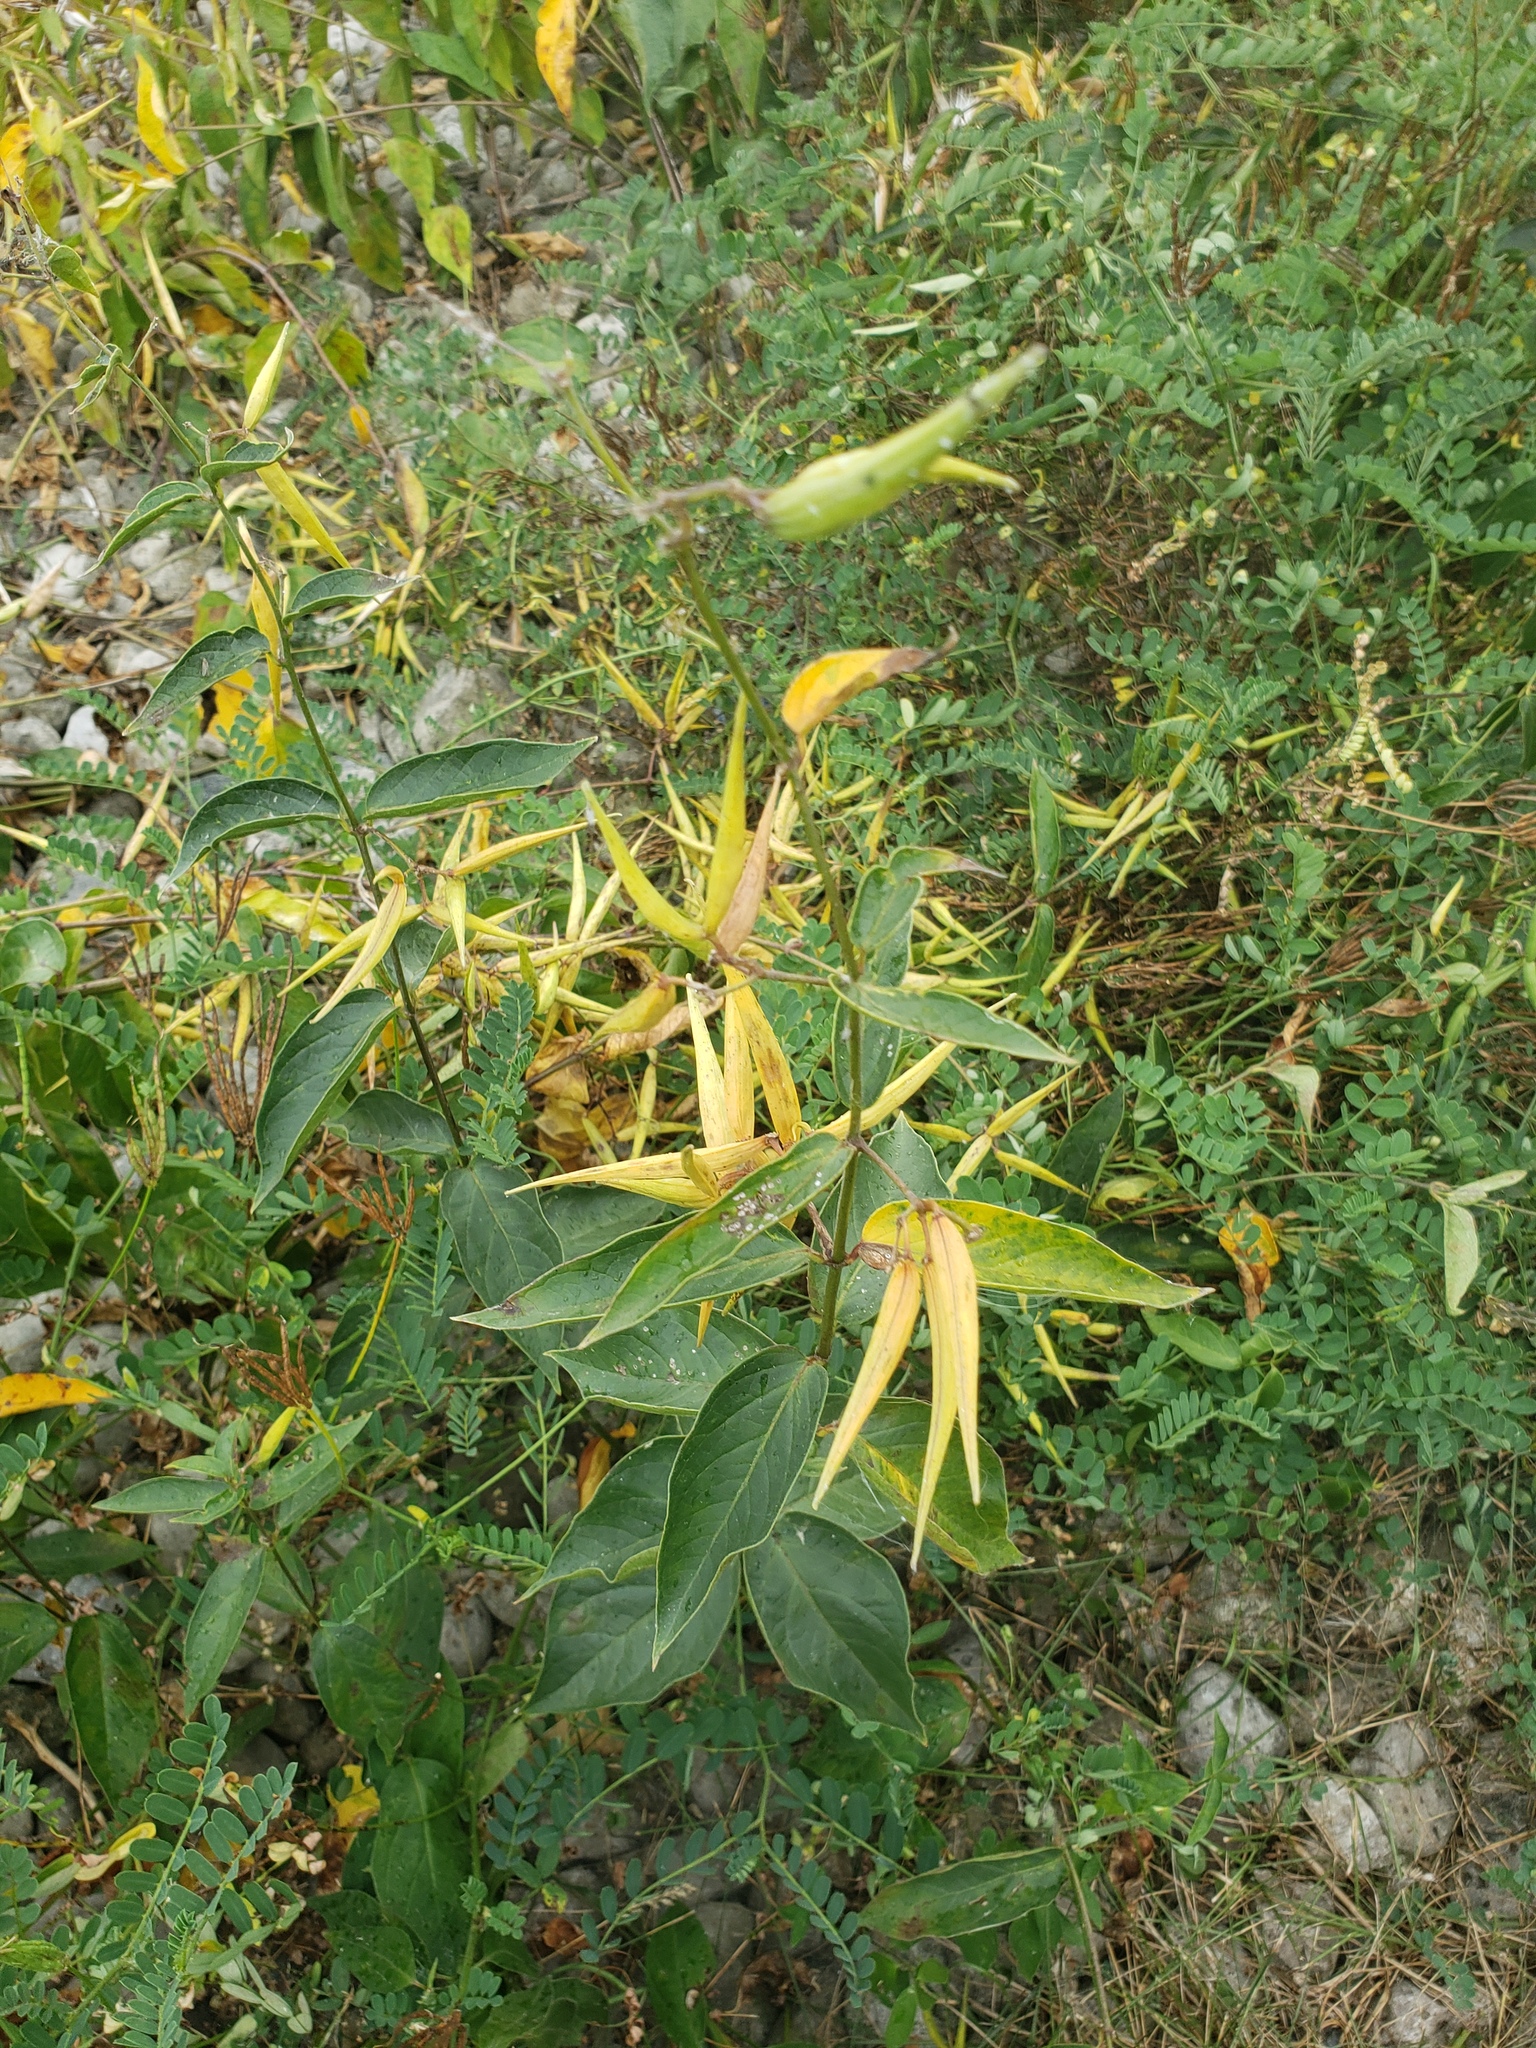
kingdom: Plantae
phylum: Tracheophyta
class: Magnoliopsida
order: Gentianales
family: Apocynaceae
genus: Vincetoxicum
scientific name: Vincetoxicum rossicum
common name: Dog-strangling vine
